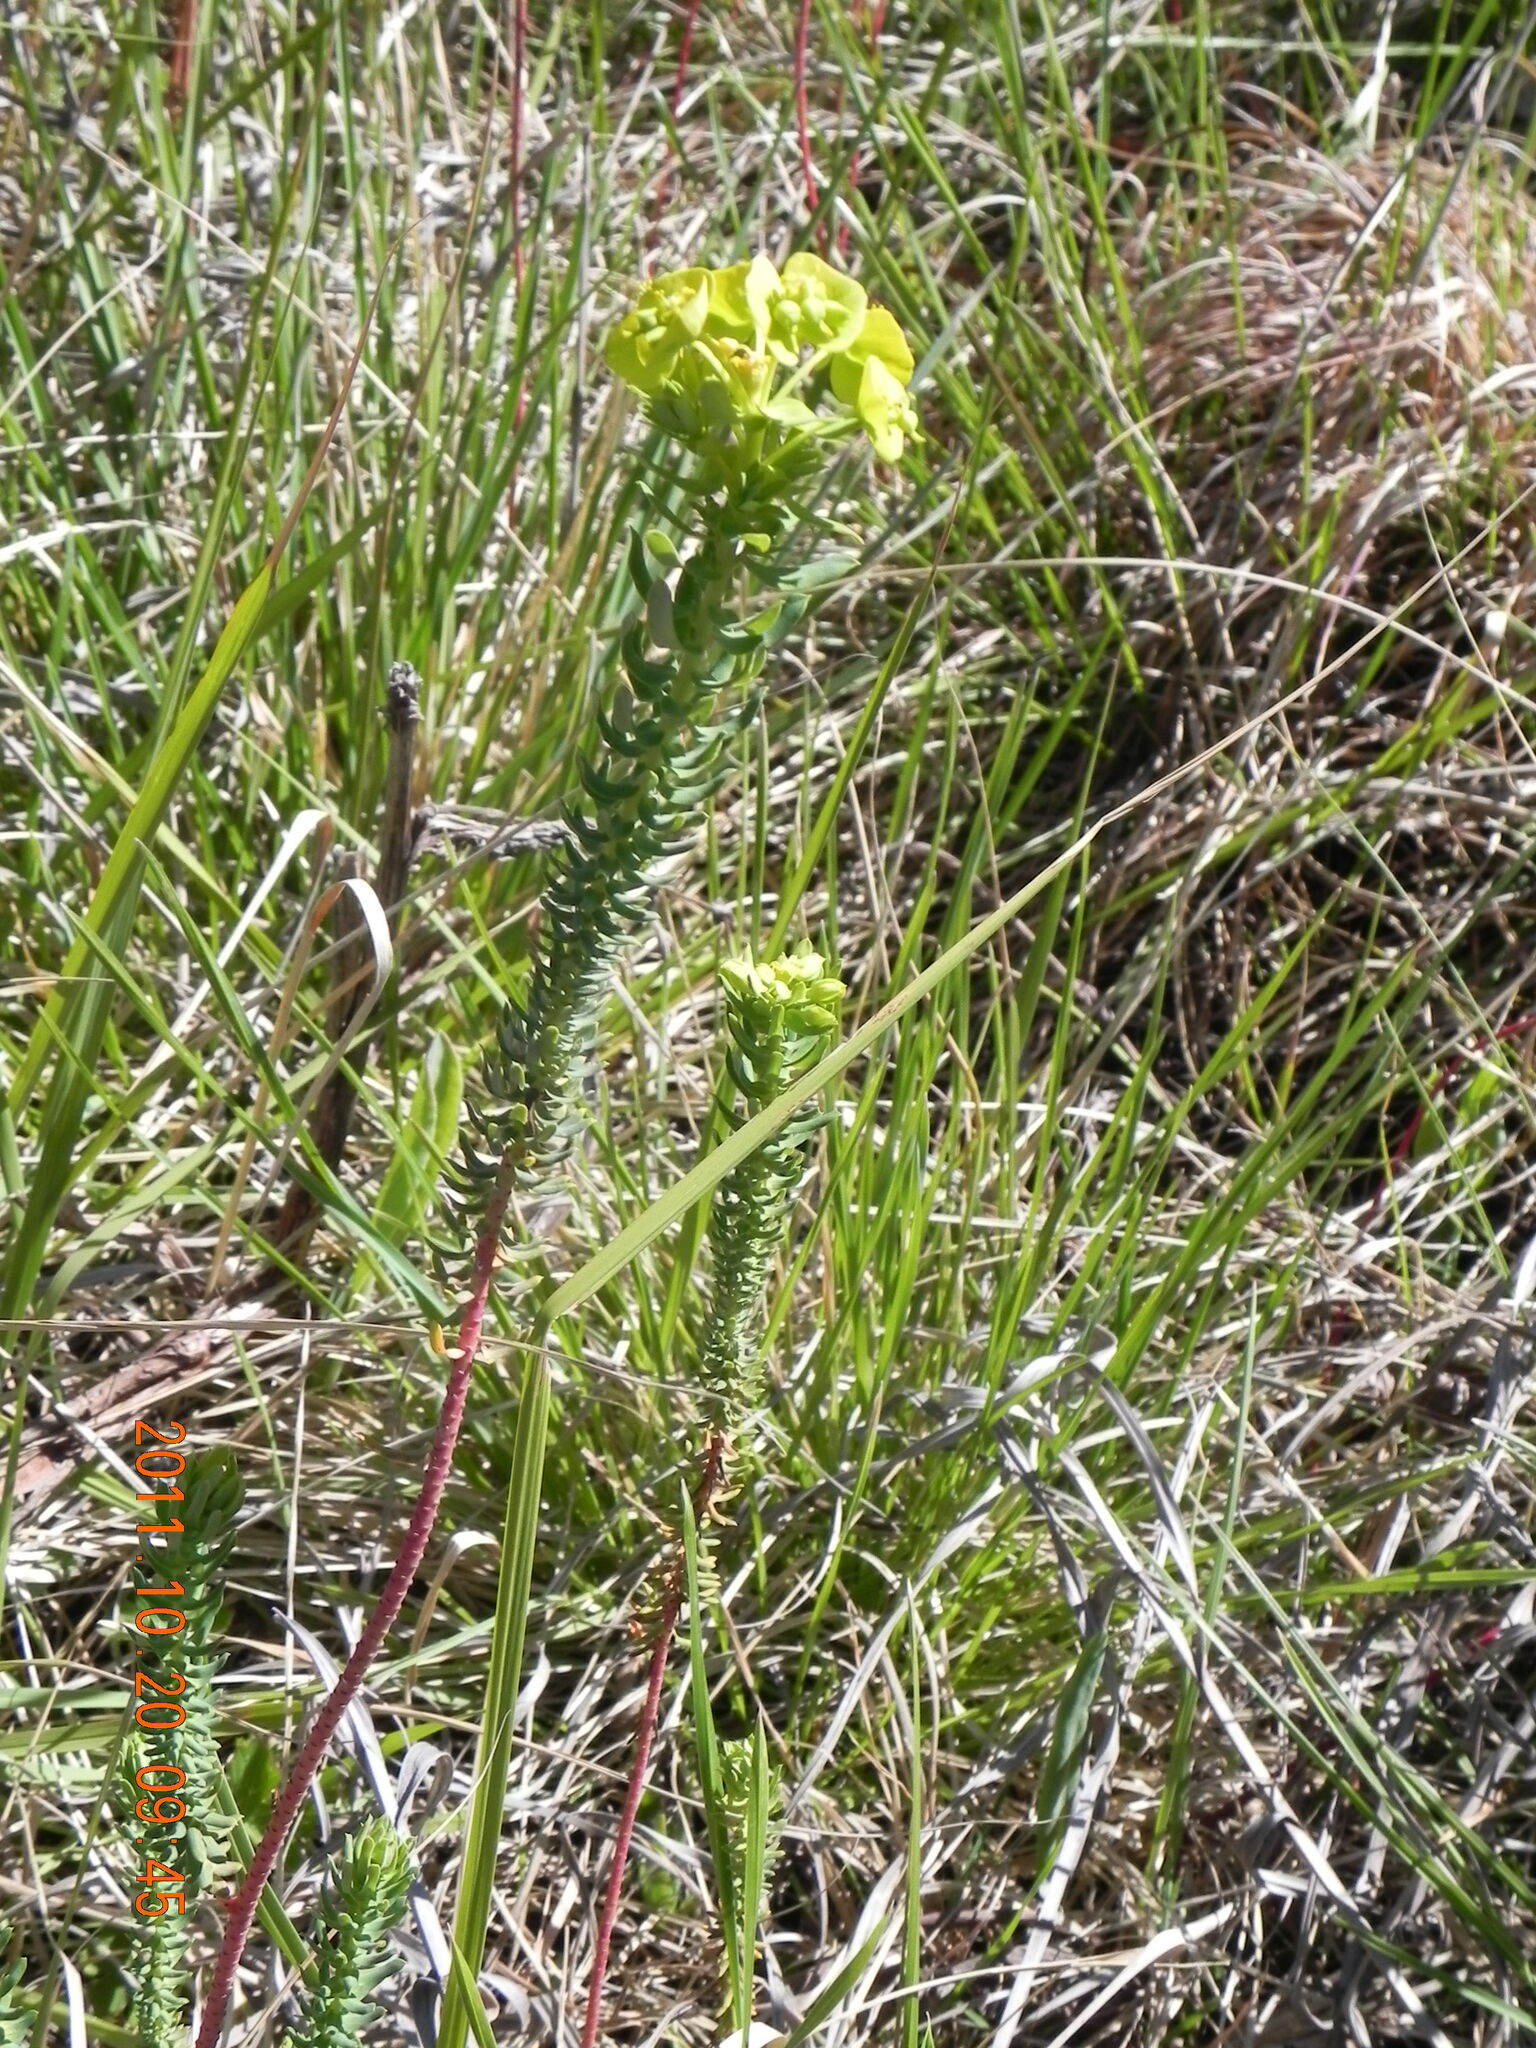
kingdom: Plantae
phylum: Tracheophyta
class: Magnoliopsida
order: Malpighiales
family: Euphorbiaceae
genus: Euphorbia
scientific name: Euphorbia natalensis
